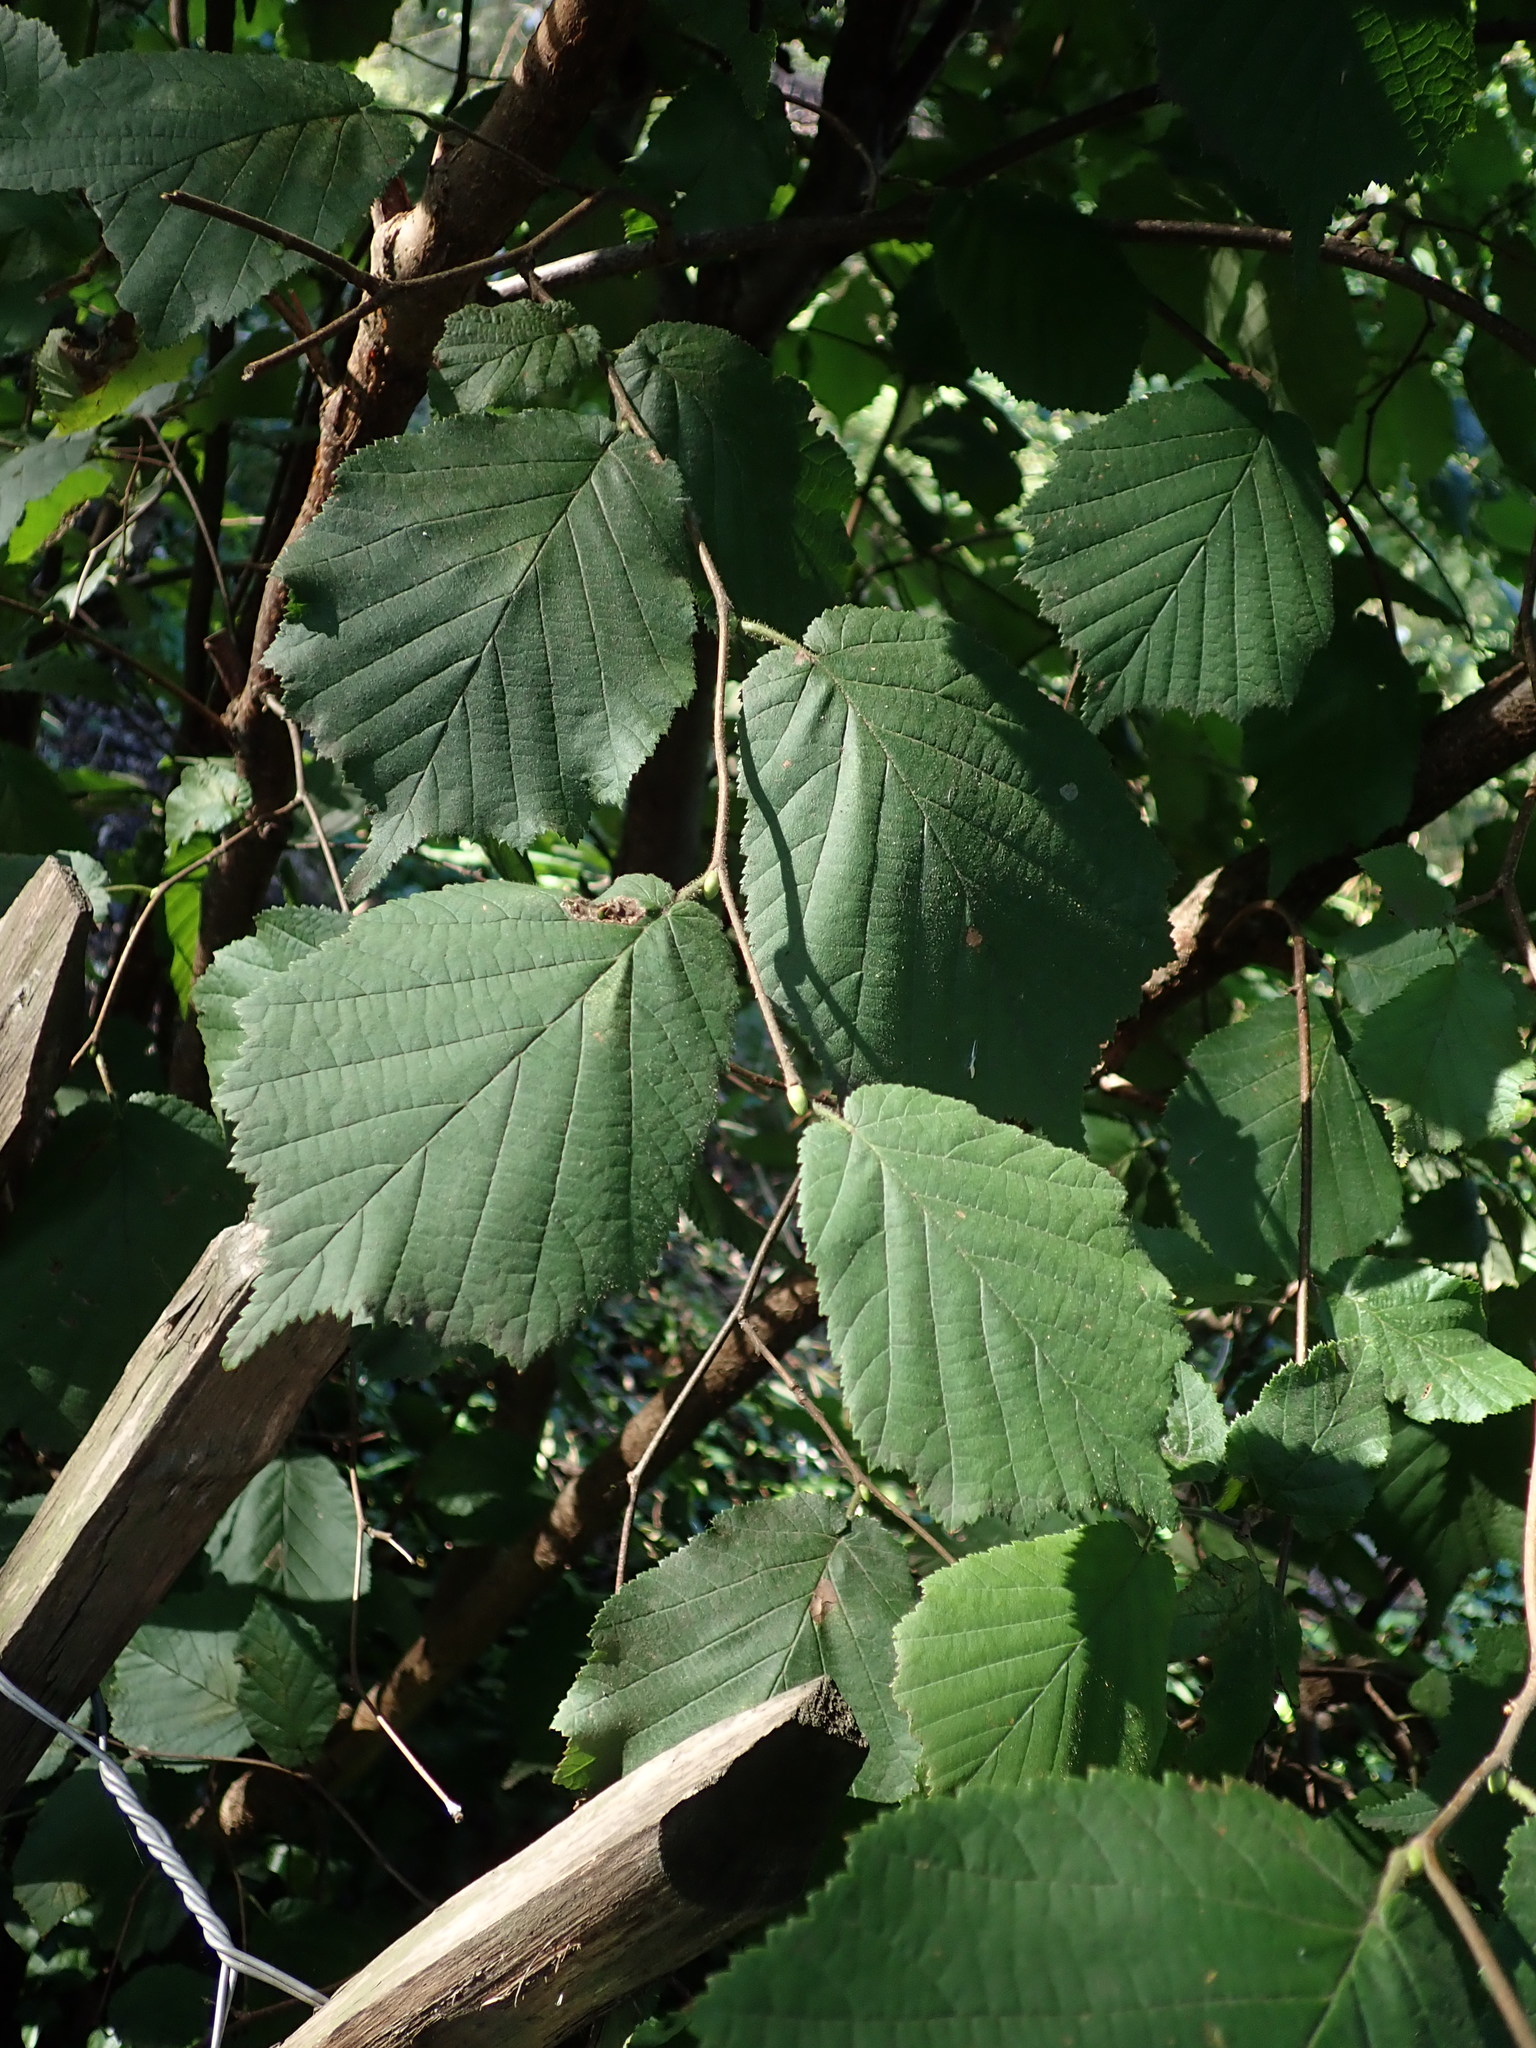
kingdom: Plantae
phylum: Tracheophyta
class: Magnoliopsida
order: Fagales
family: Betulaceae
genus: Corylus
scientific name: Corylus avellana
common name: European hazel
